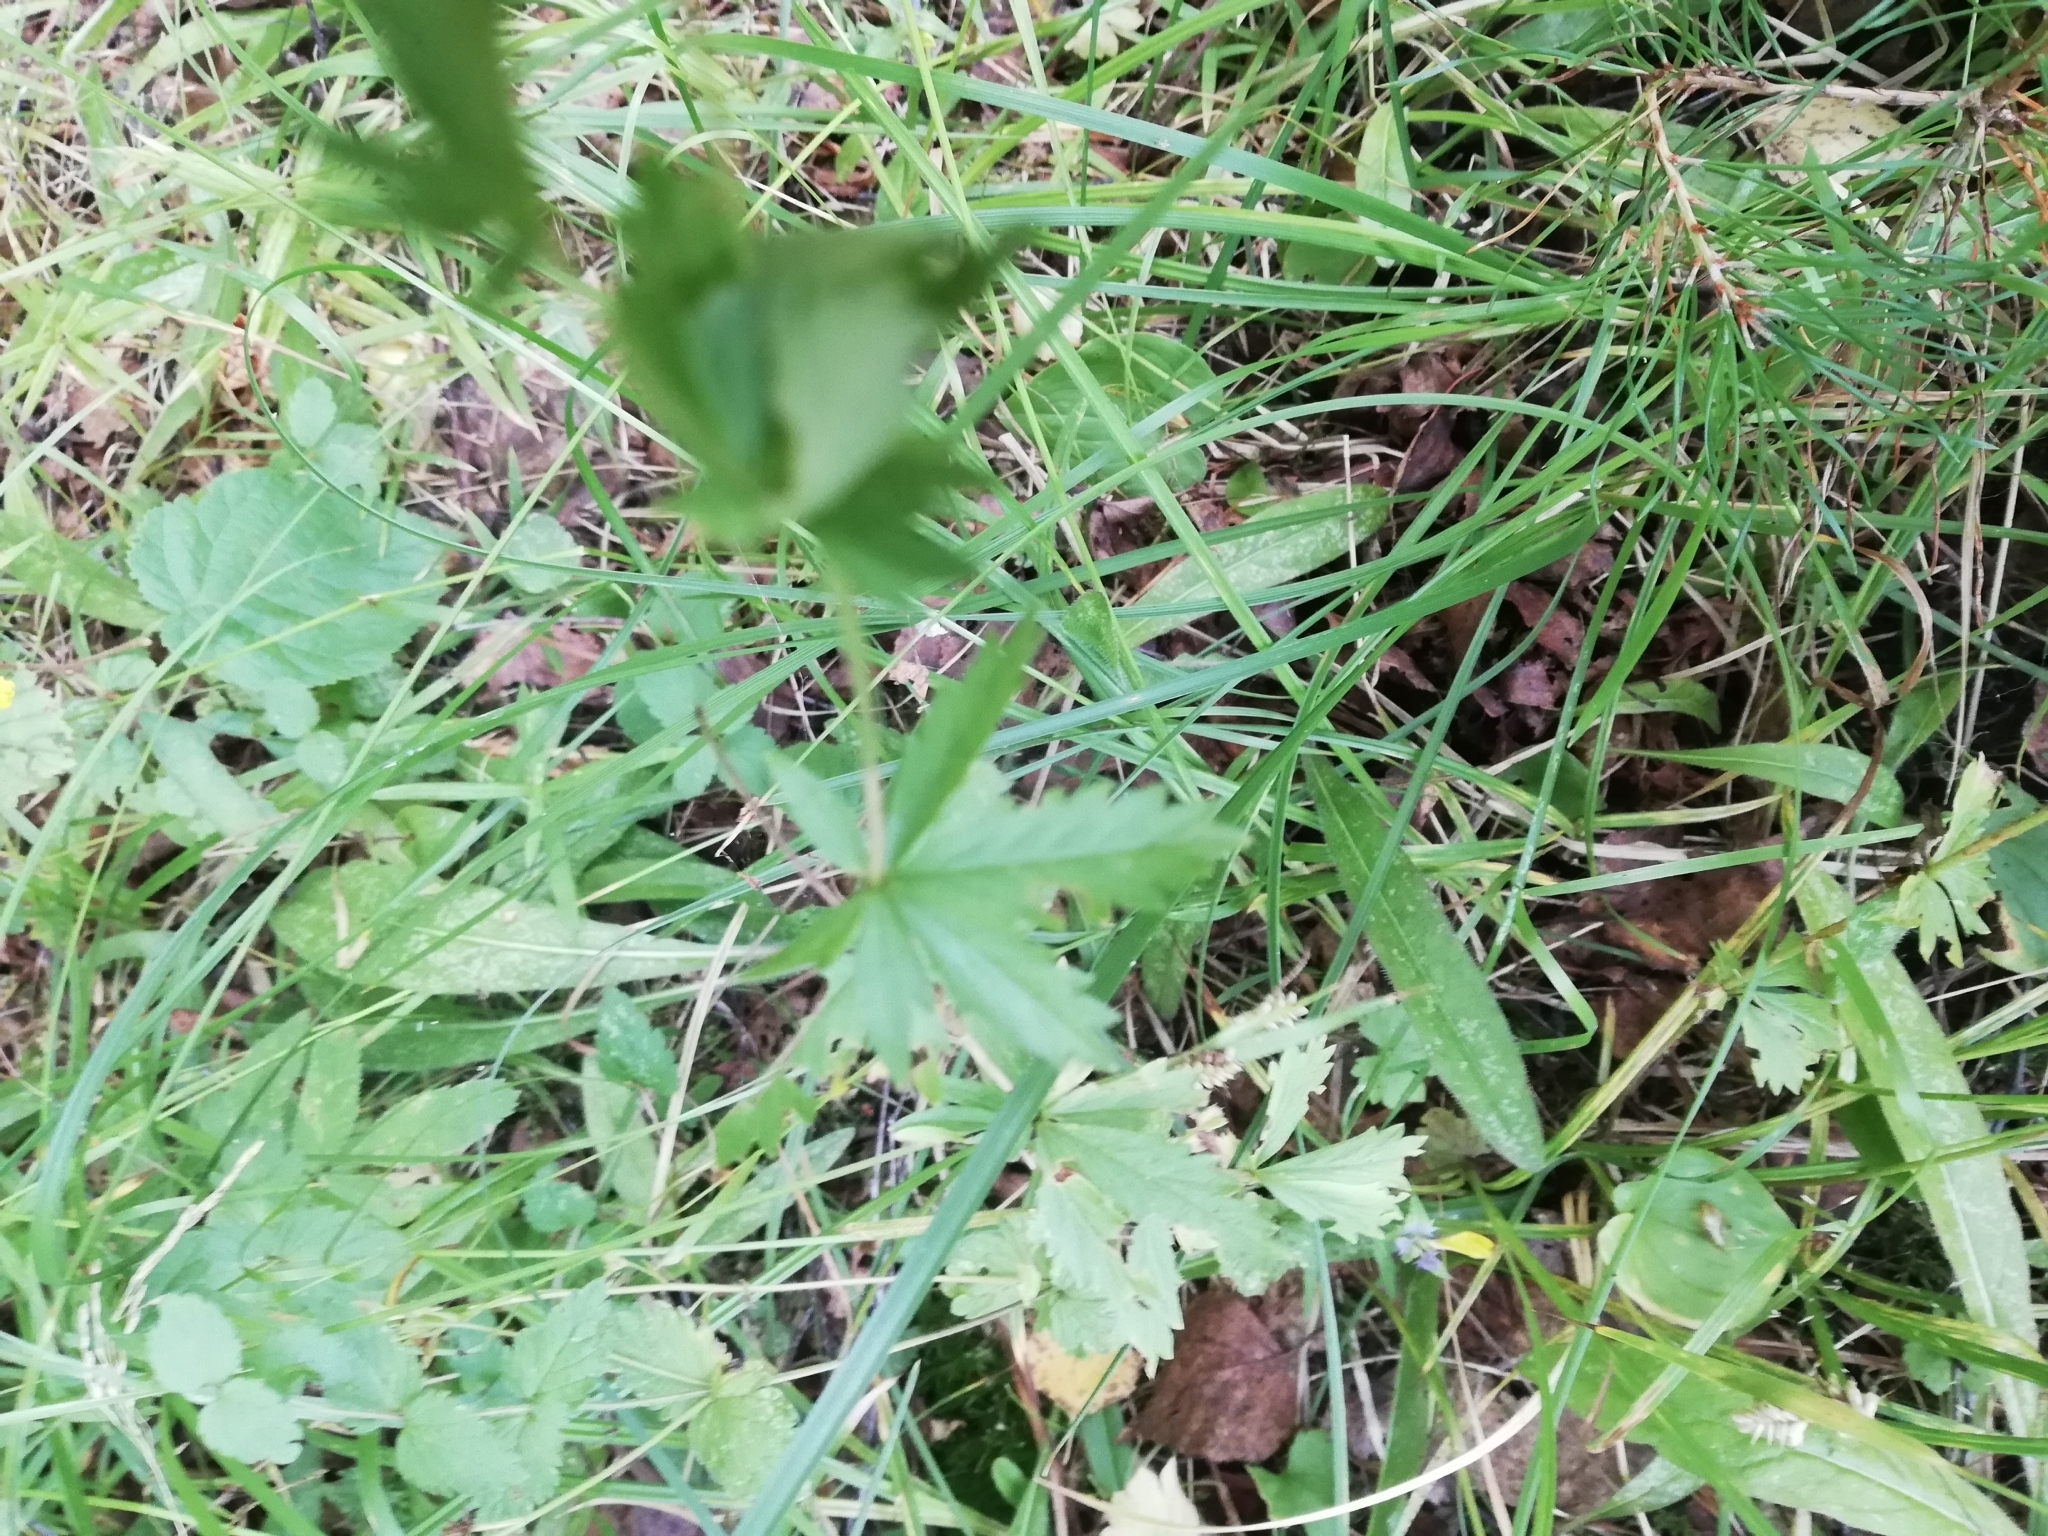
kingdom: Plantae
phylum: Tracheophyta
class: Magnoliopsida
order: Rosales
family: Rosaceae
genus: Potentilla
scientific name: Potentilla erecta
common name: Tormentil
